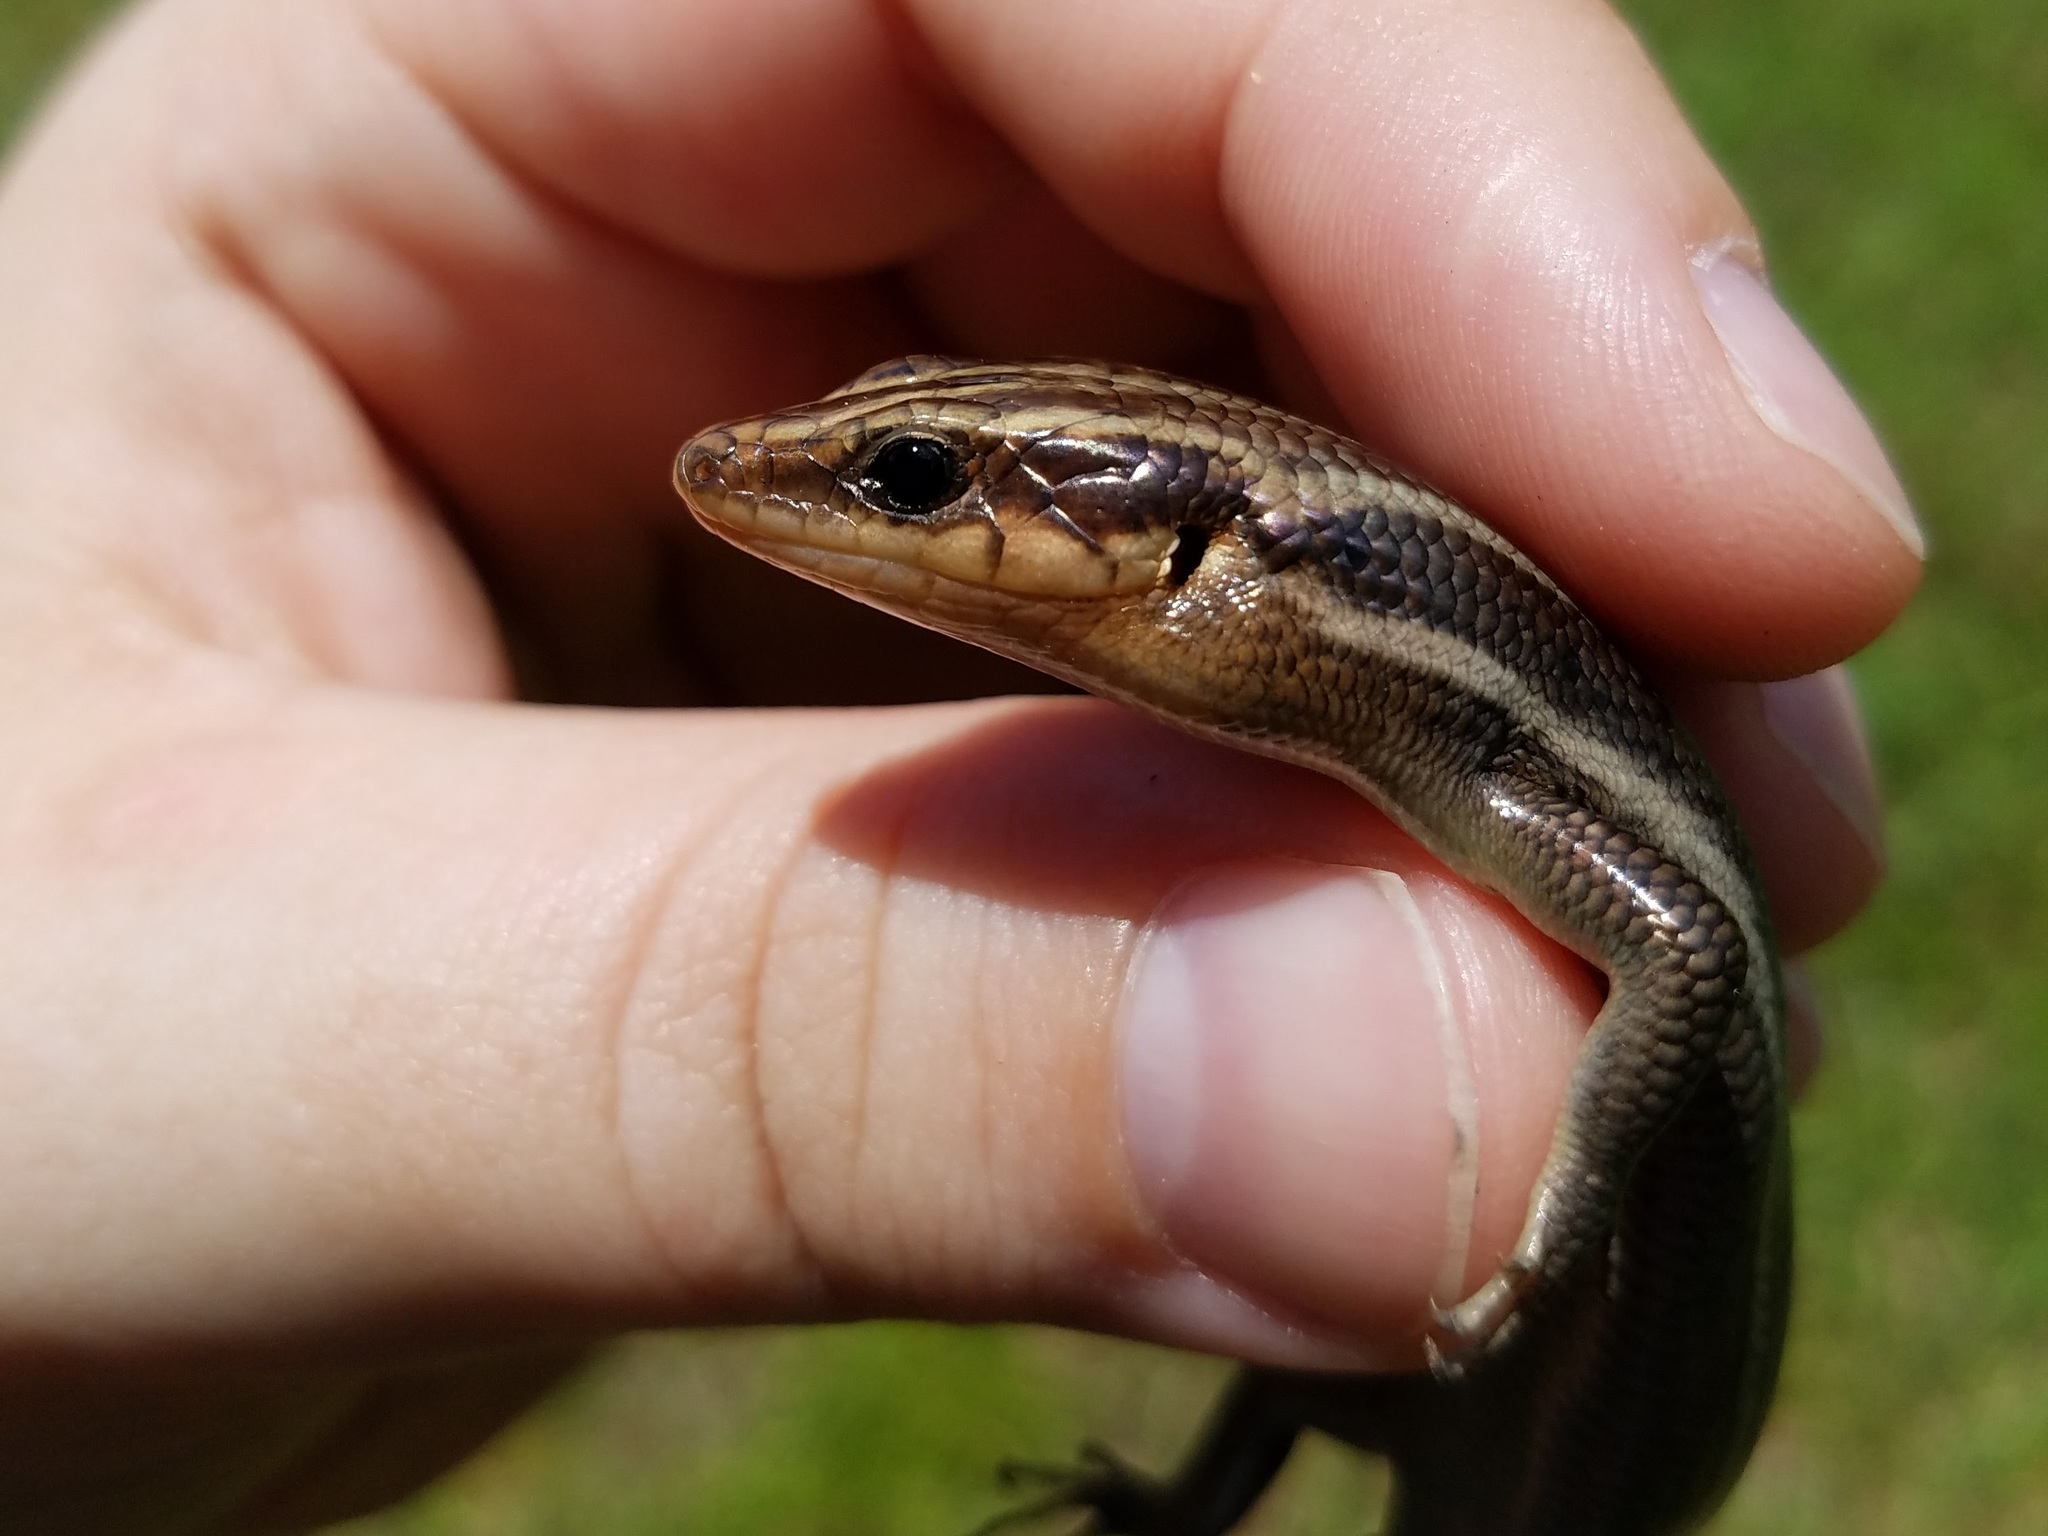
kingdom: Animalia
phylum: Chordata
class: Squamata
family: Scincidae
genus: Plestiodon
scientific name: Plestiodon fasciatus
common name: Five-lined skink
